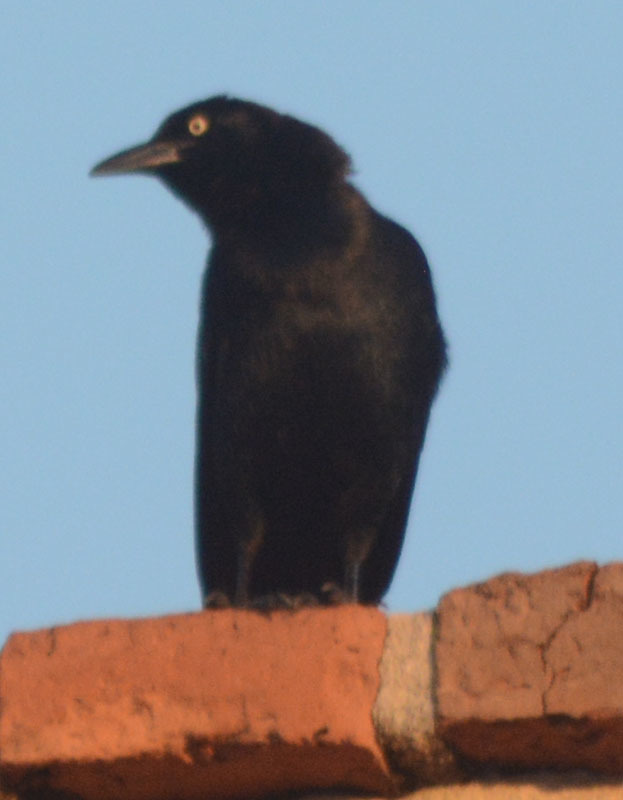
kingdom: Animalia
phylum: Chordata
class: Aves
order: Passeriformes
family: Icteridae
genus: Quiscalus
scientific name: Quiscalus mexicanus
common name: Great-tailed grackle
